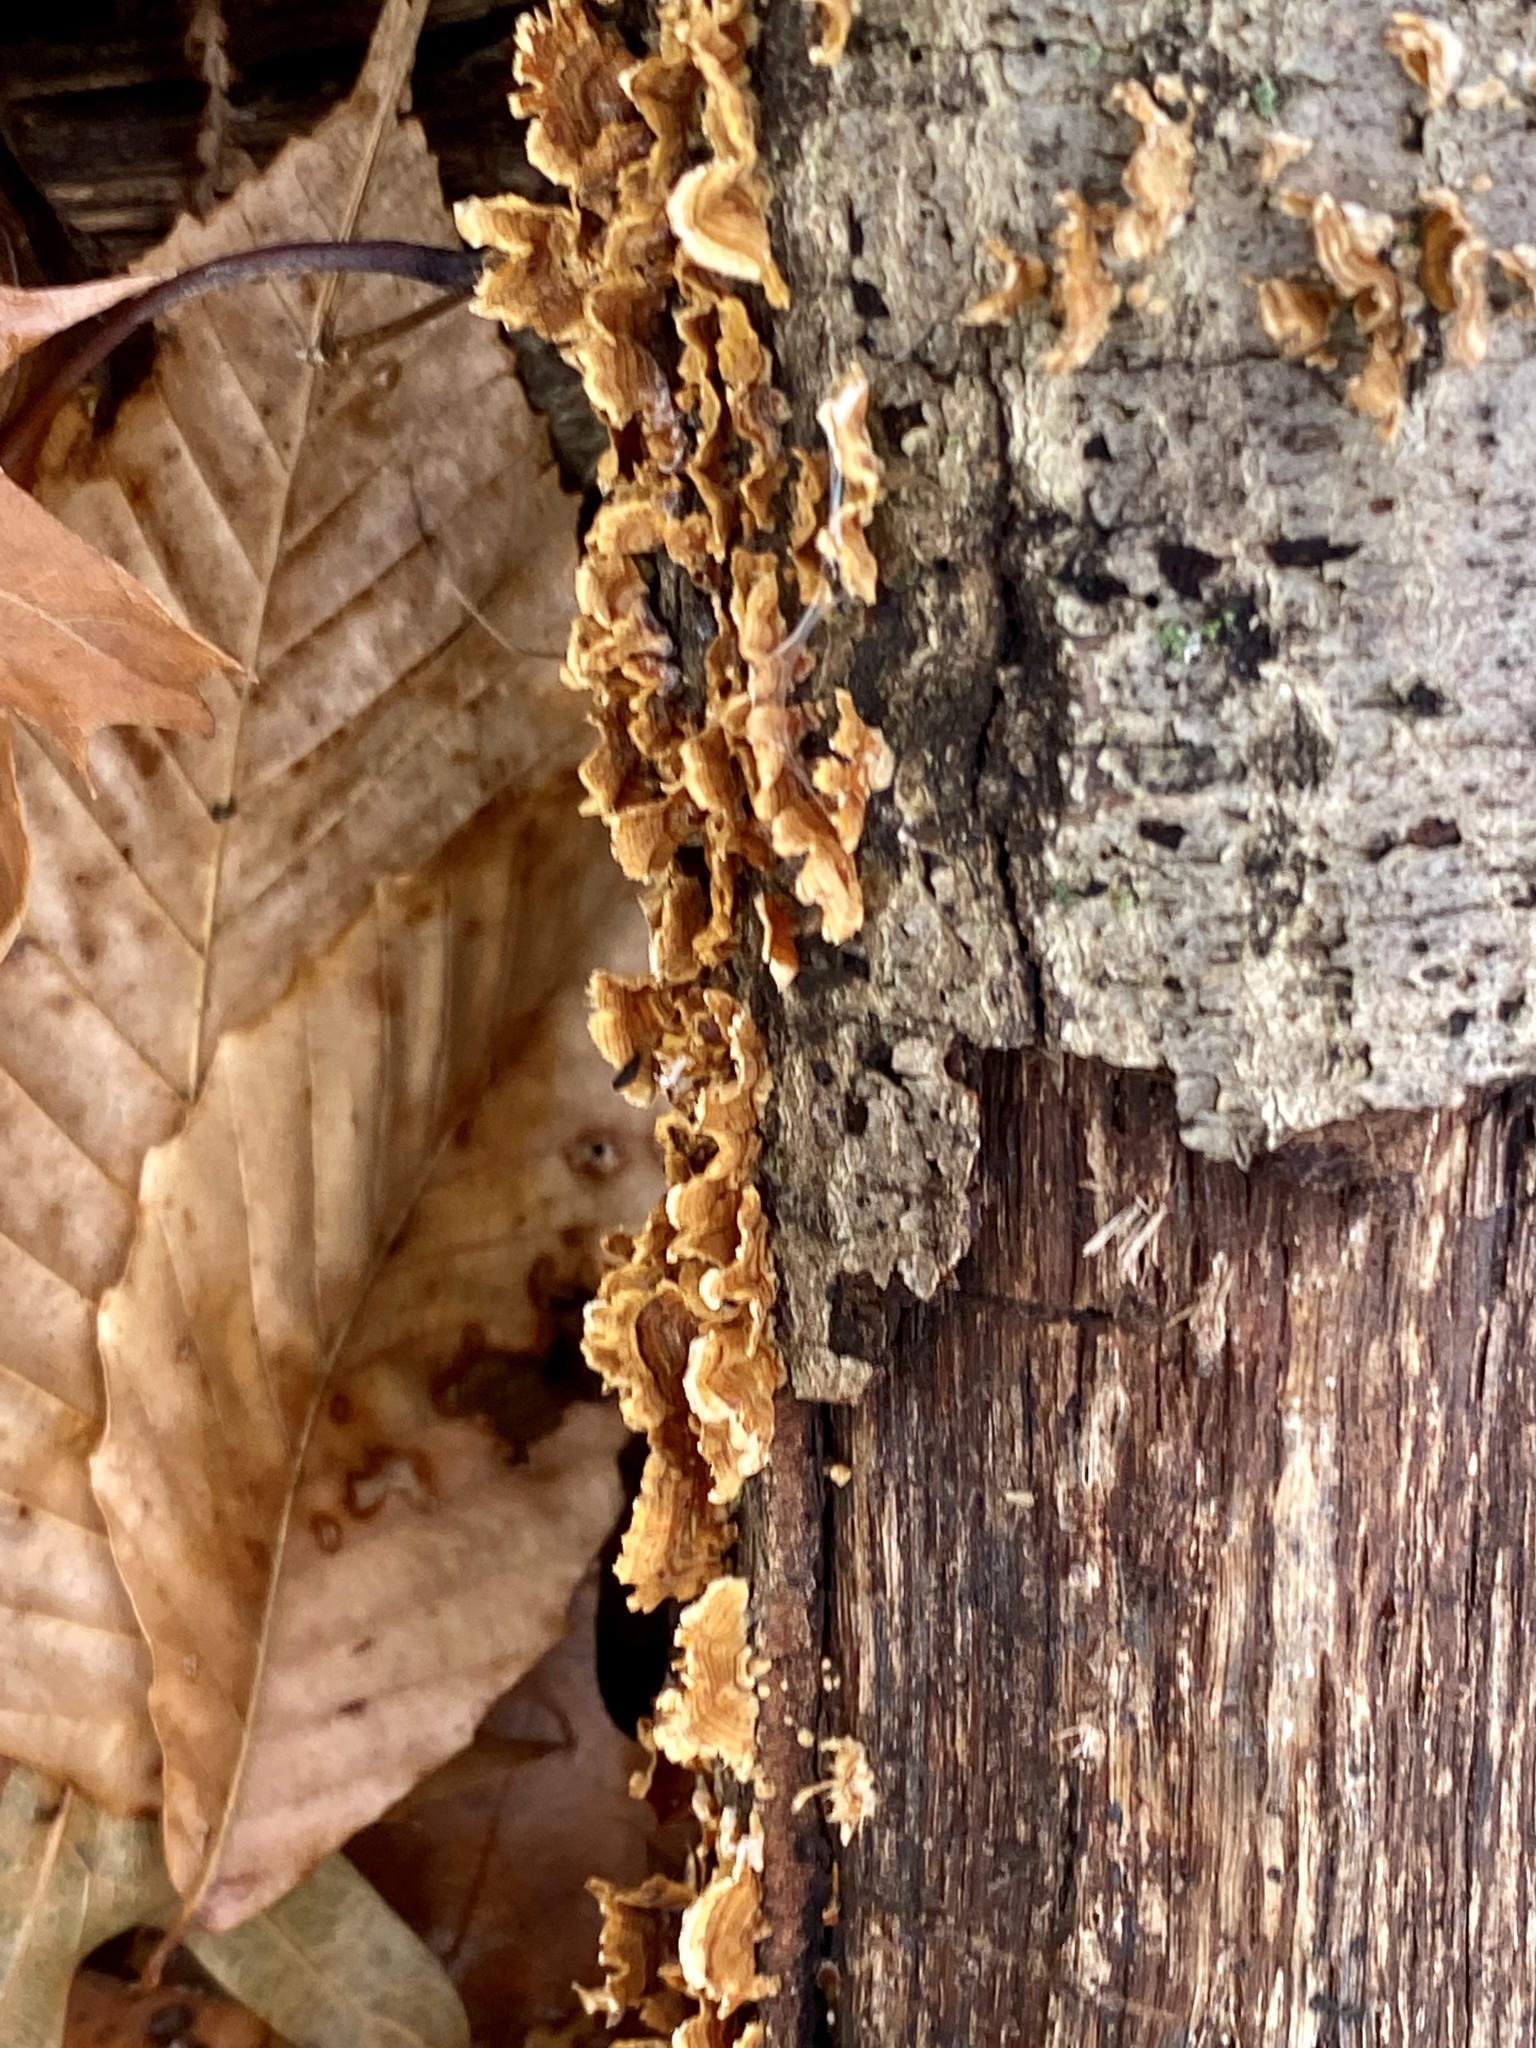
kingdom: Fungi
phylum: Basidiomycota
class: Agaricomycetes
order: Russulales
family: Stereaceae
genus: Stereum
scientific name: Stereum complicatum
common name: Crowded parchment
